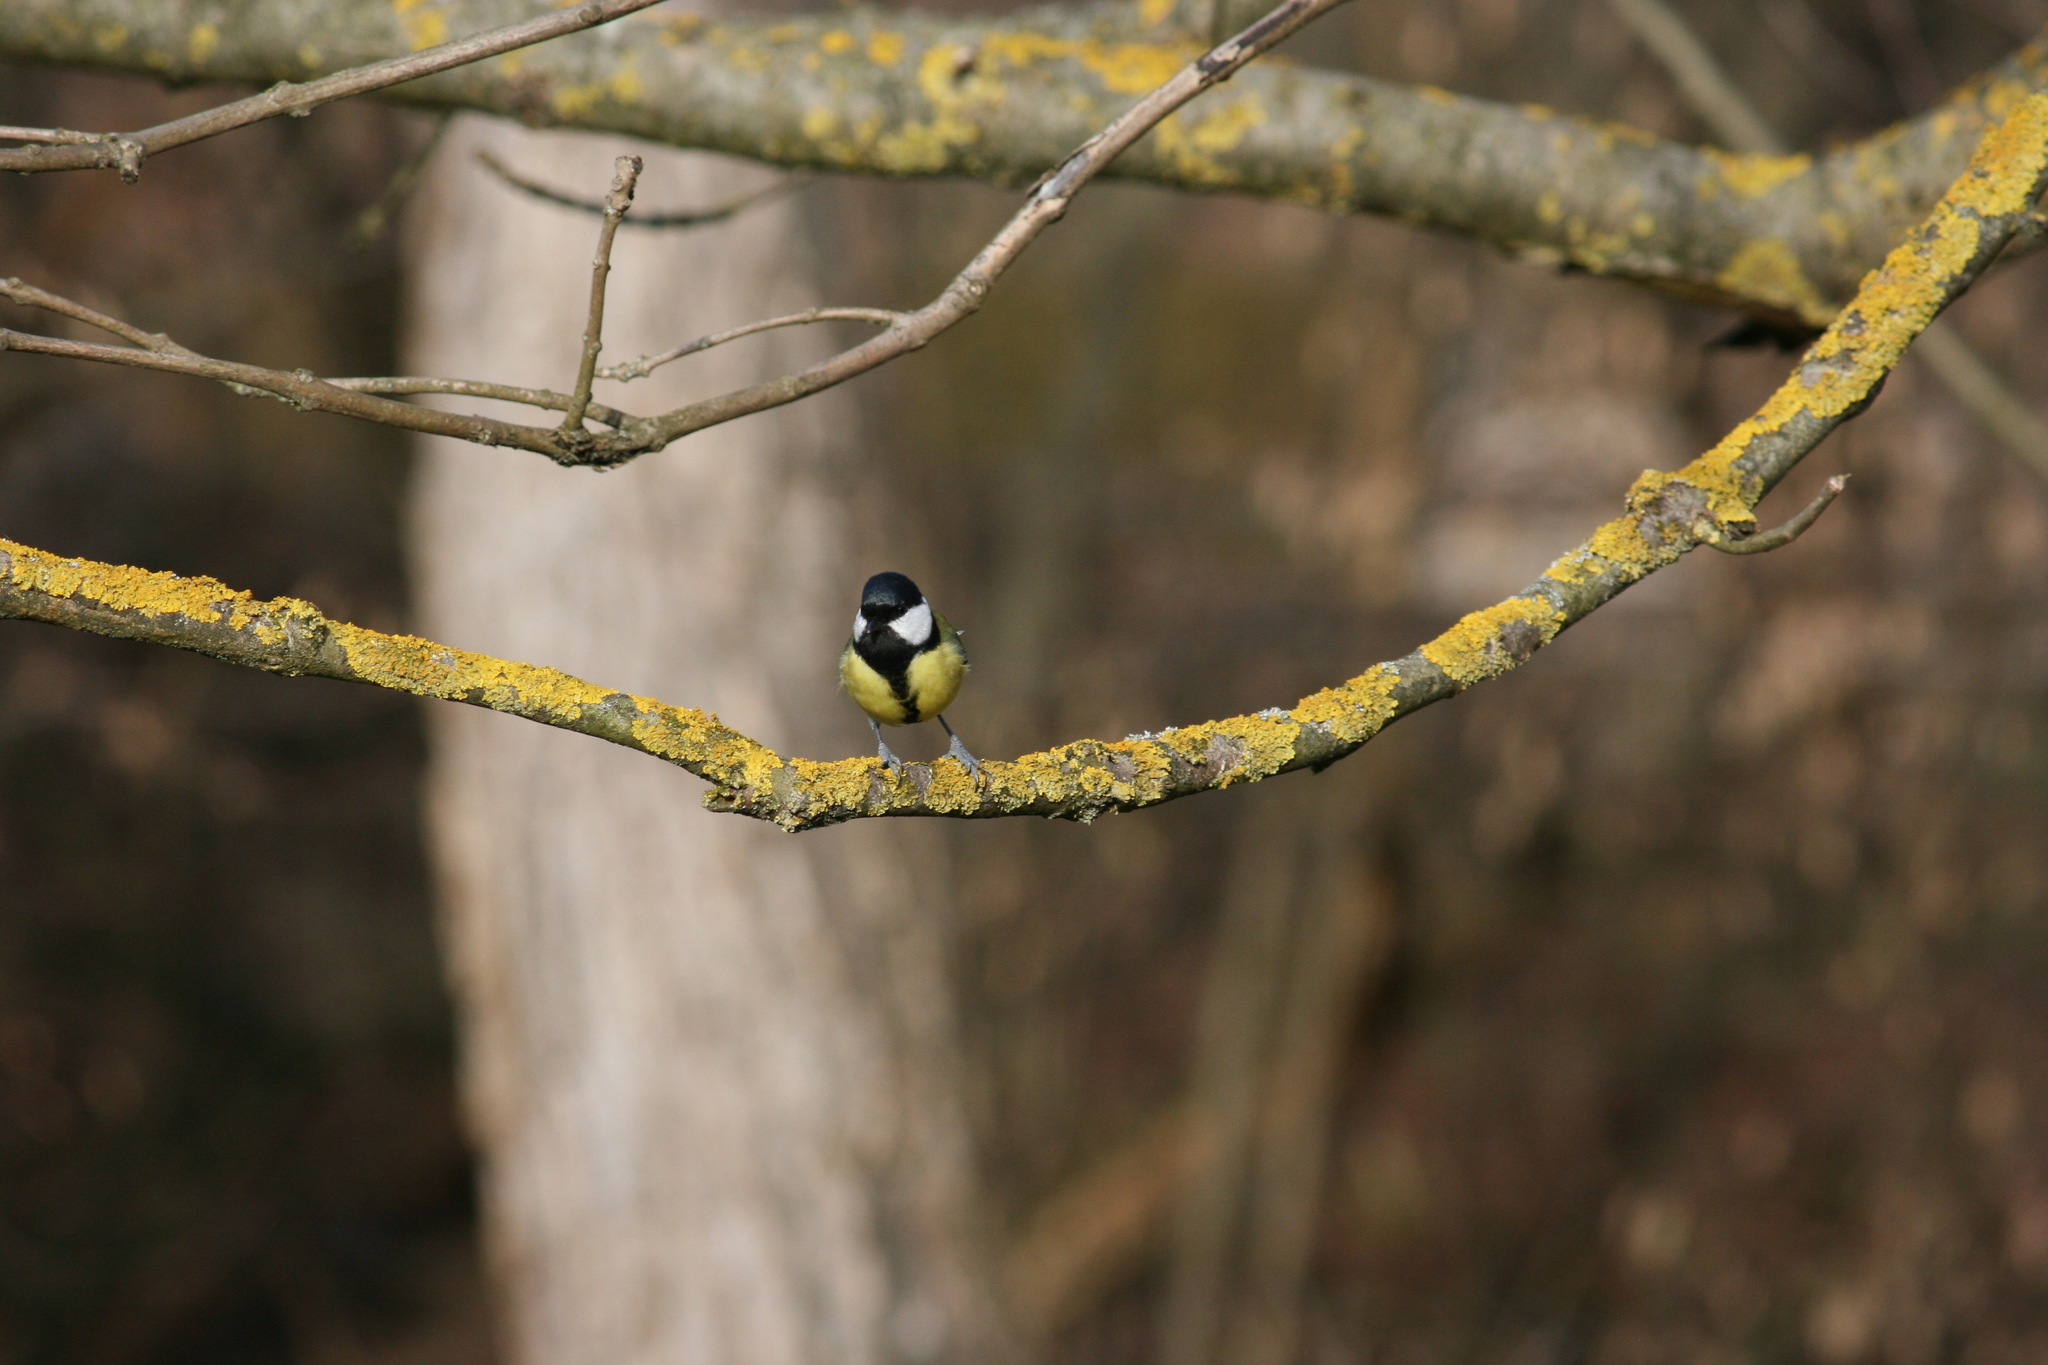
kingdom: Animalia
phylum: Chordata
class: Aves
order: Passeriformes
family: Paridae
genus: Parus
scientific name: Parus major
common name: Great tit
